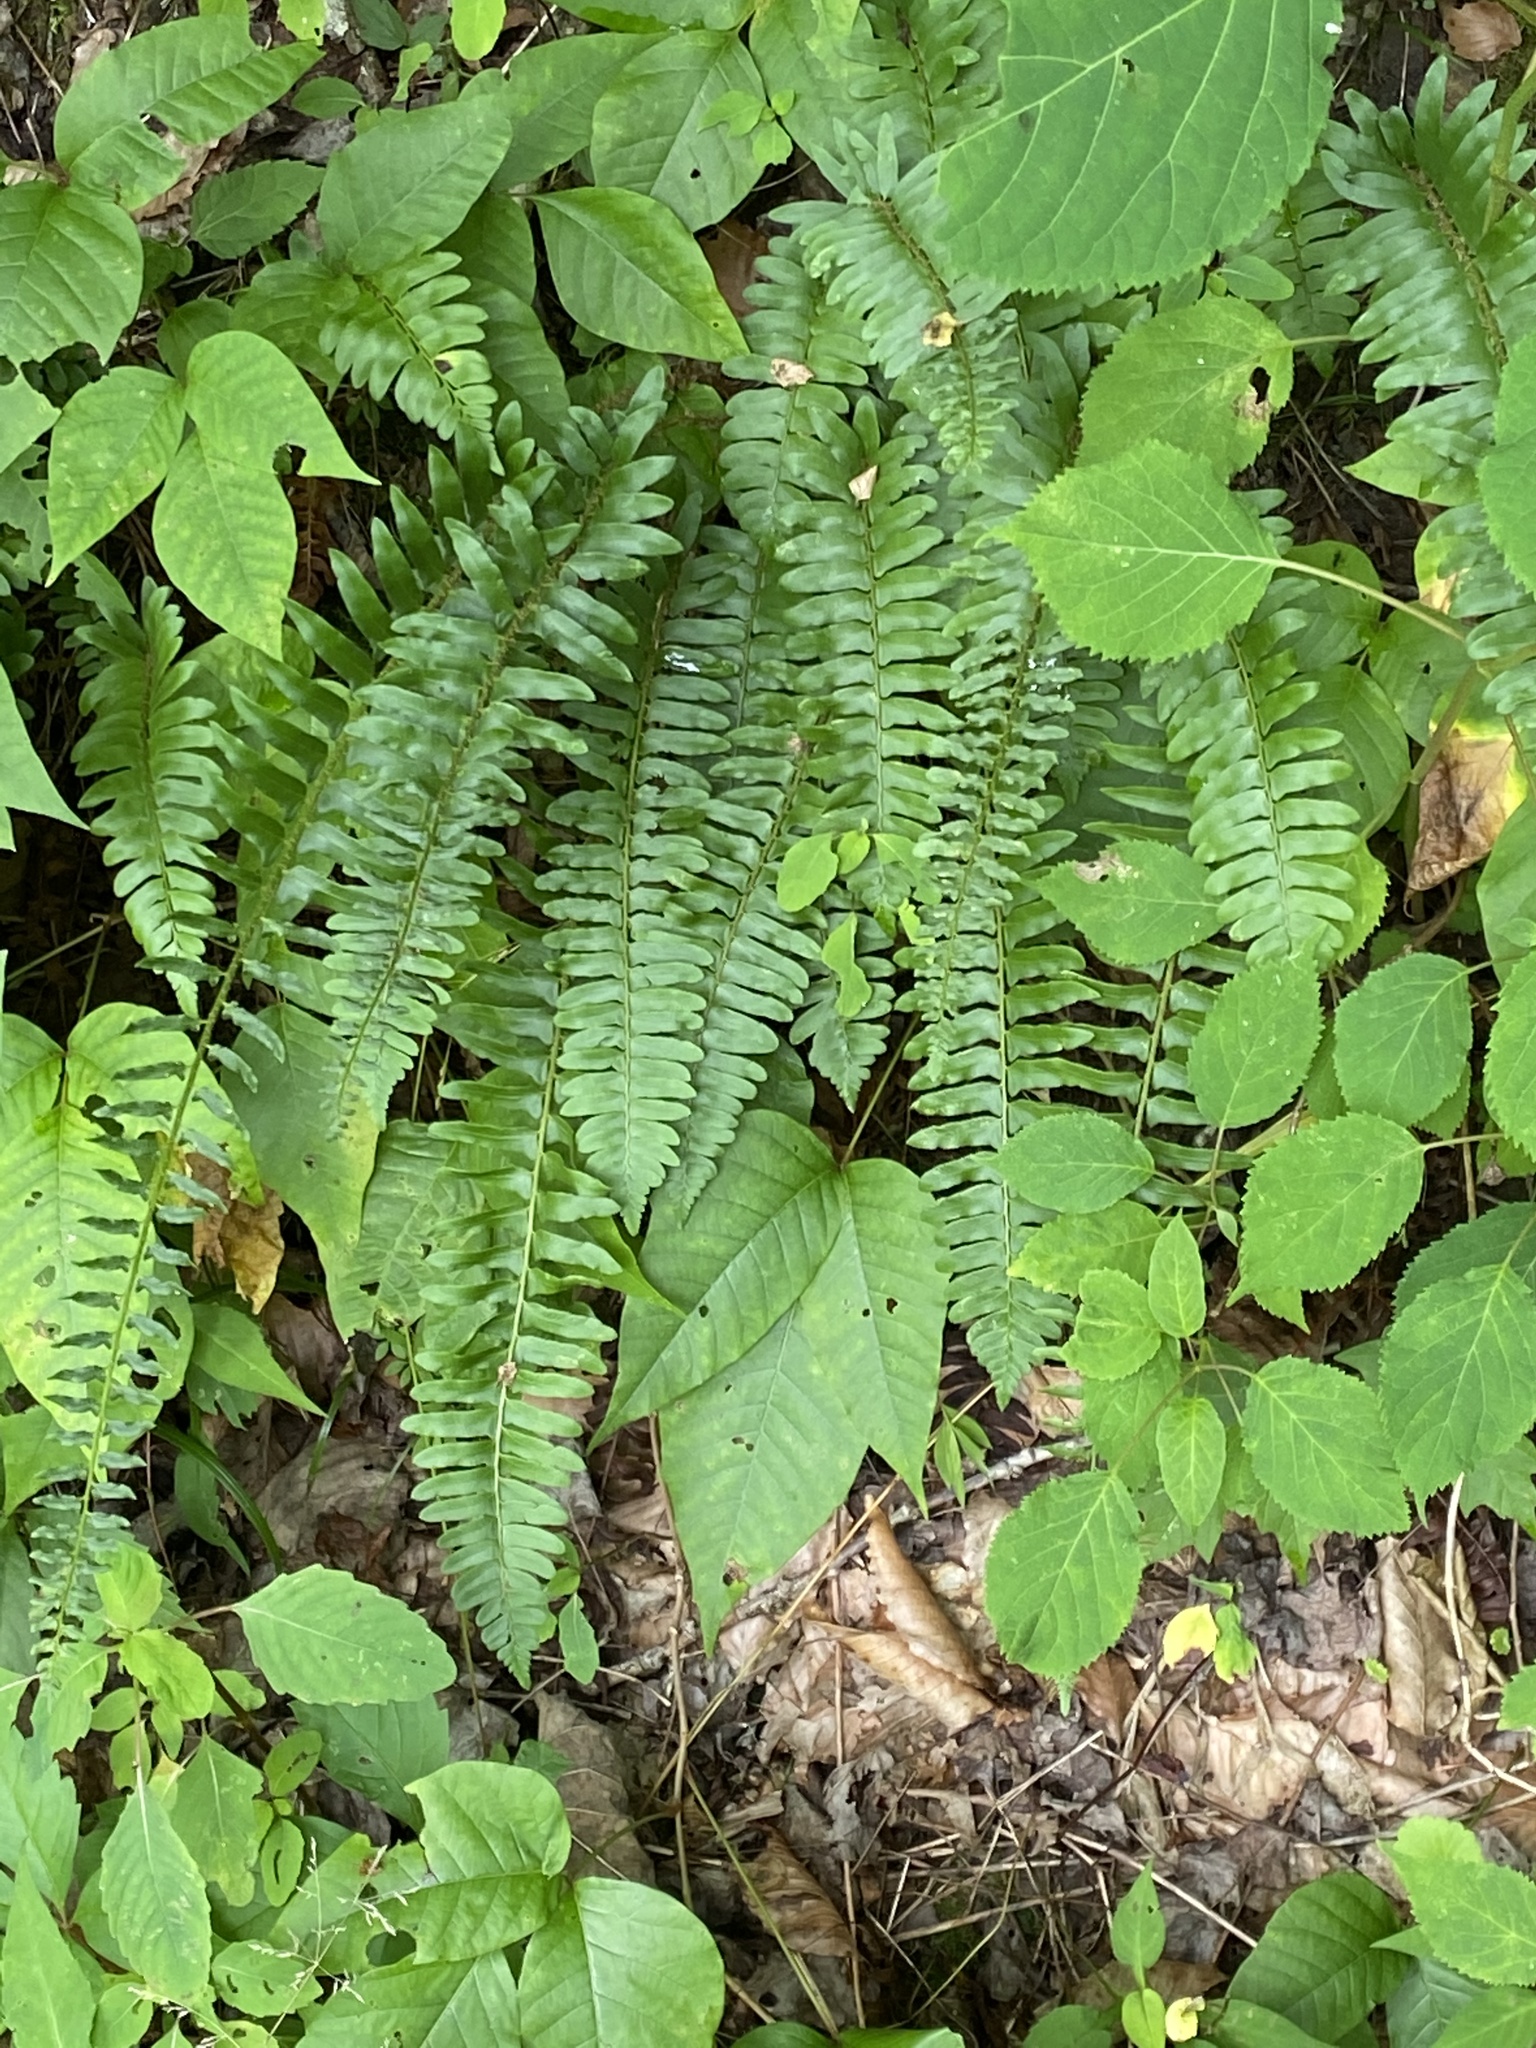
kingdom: Plantae
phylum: Tracheophyta
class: Polypodiopsida
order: Polypodiales
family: Dryopteridaceae
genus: Polystichum
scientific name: Polystichum acrostichoides
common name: Christmas fern
